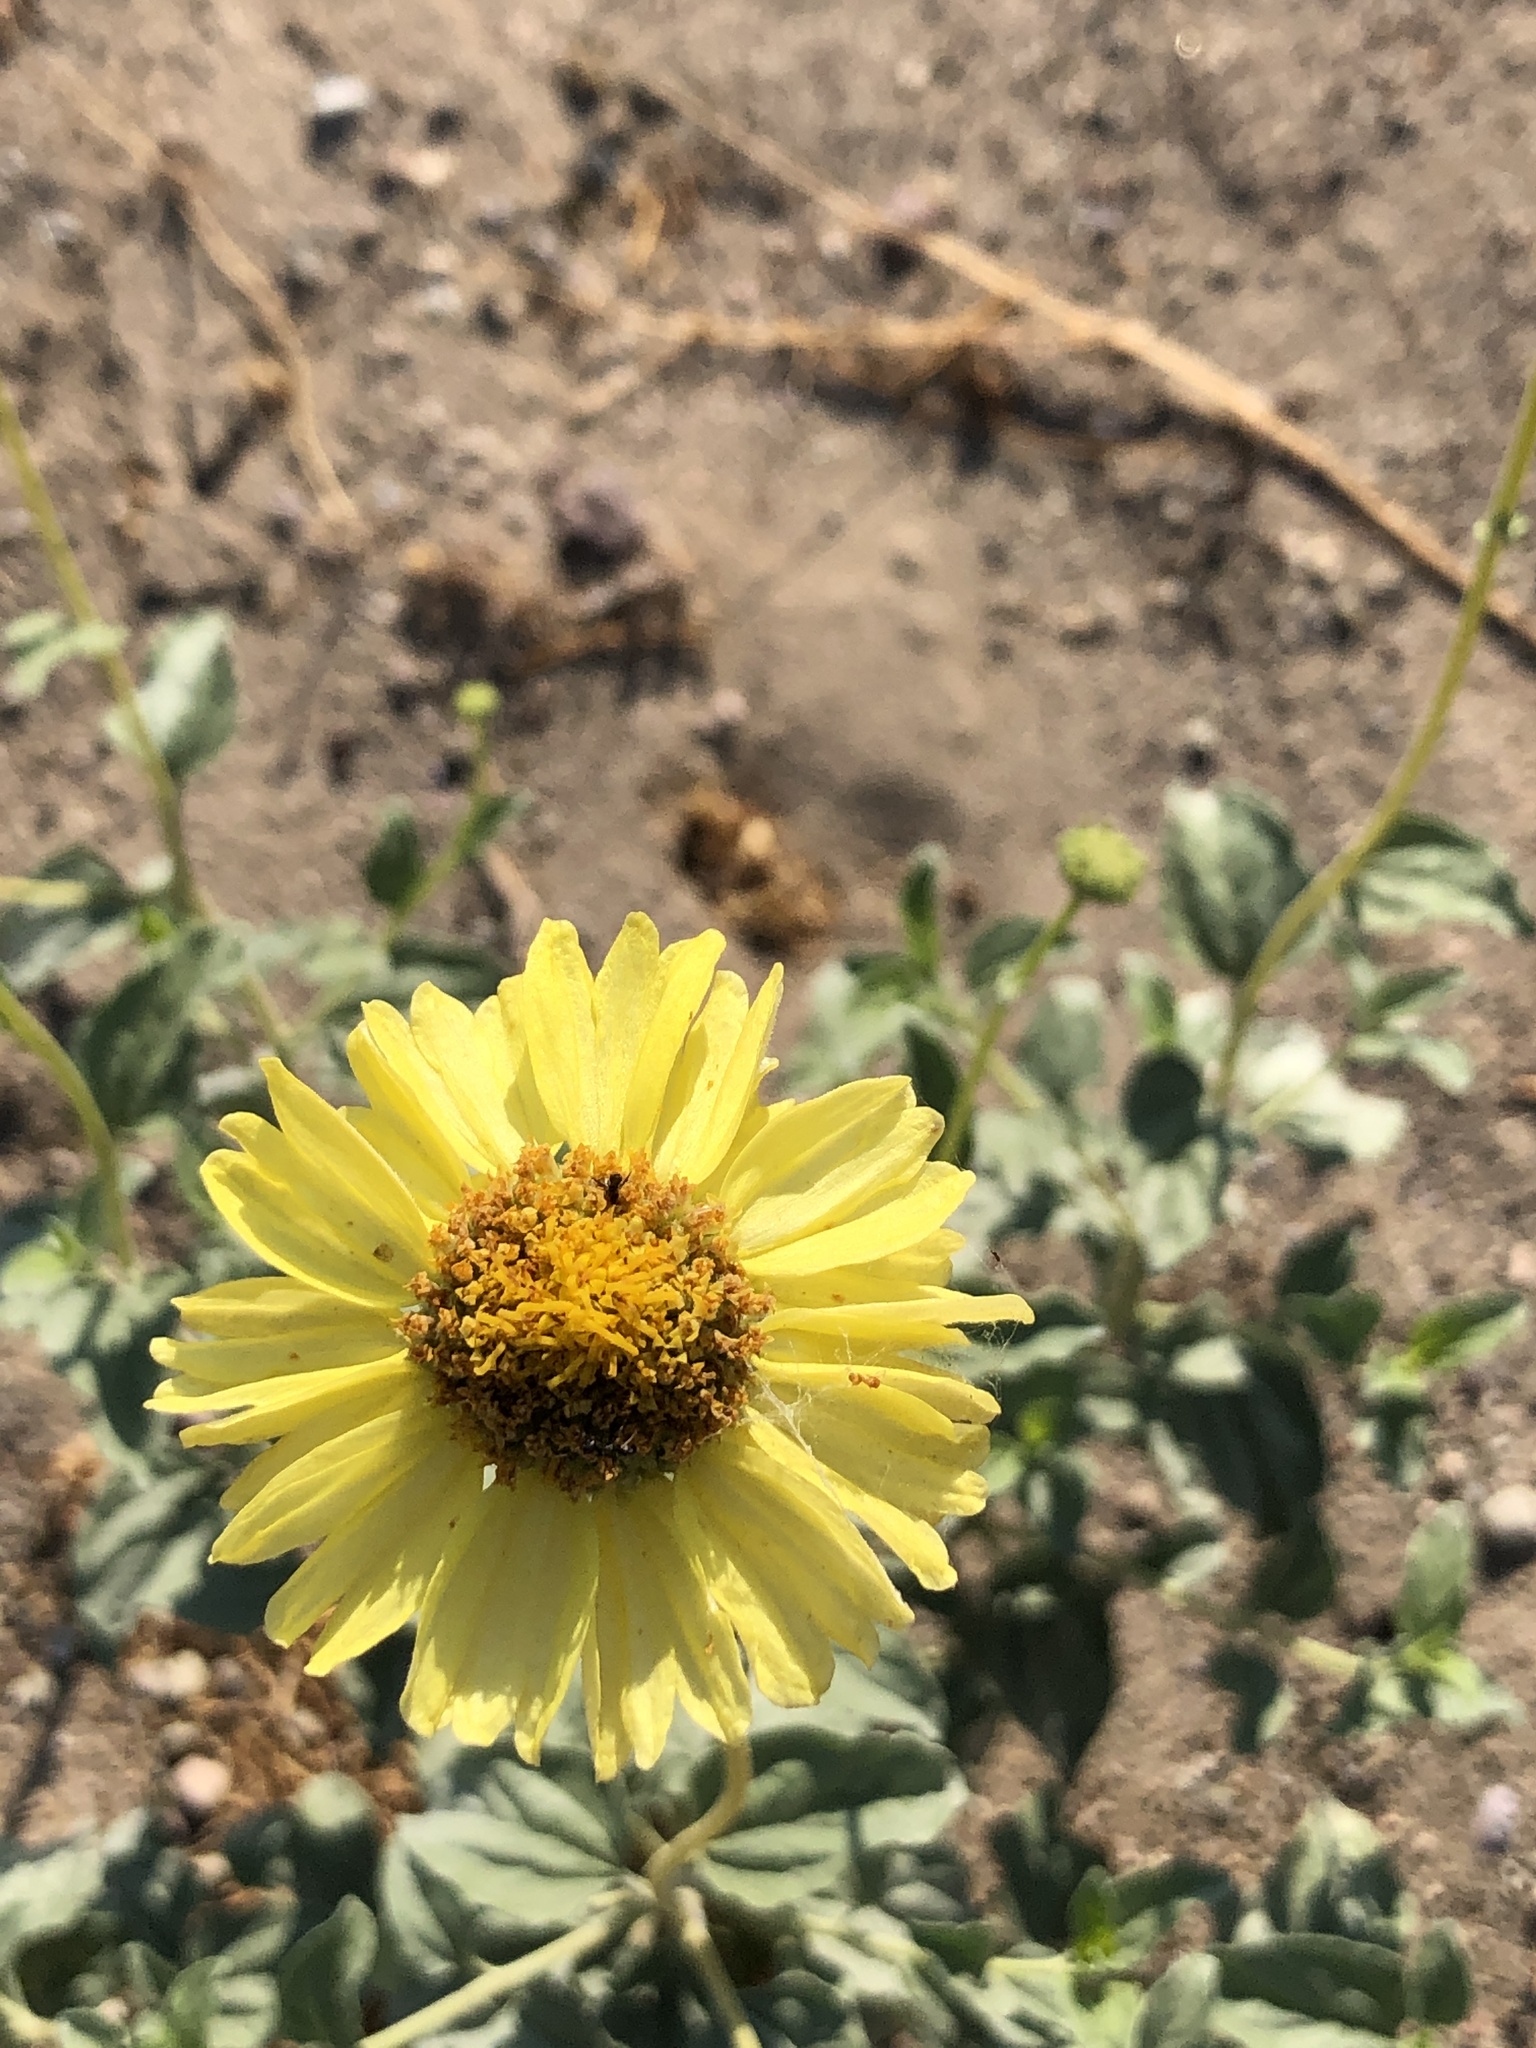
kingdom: Plantae
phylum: Tracheophyta
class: Magnoliopsida
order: Asterales
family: Asteraceae
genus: Encelia
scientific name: Encelia actoni
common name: Acton encelia
